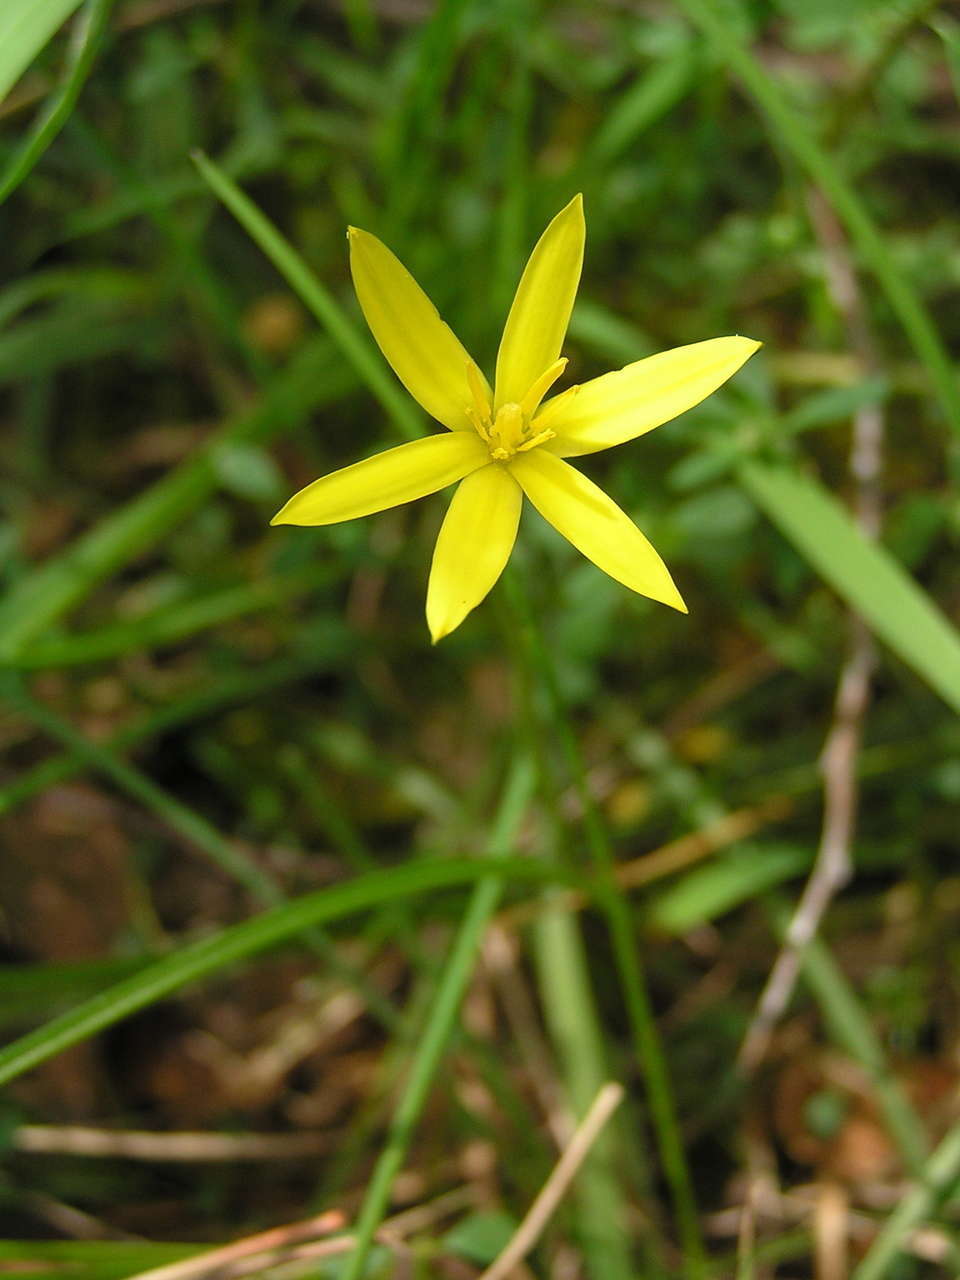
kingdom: Plantae
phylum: Tracheophyta
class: Liliopsida
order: Asparagales
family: Hypoxidaceae
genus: Pauridia
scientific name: Pauridia glabella
